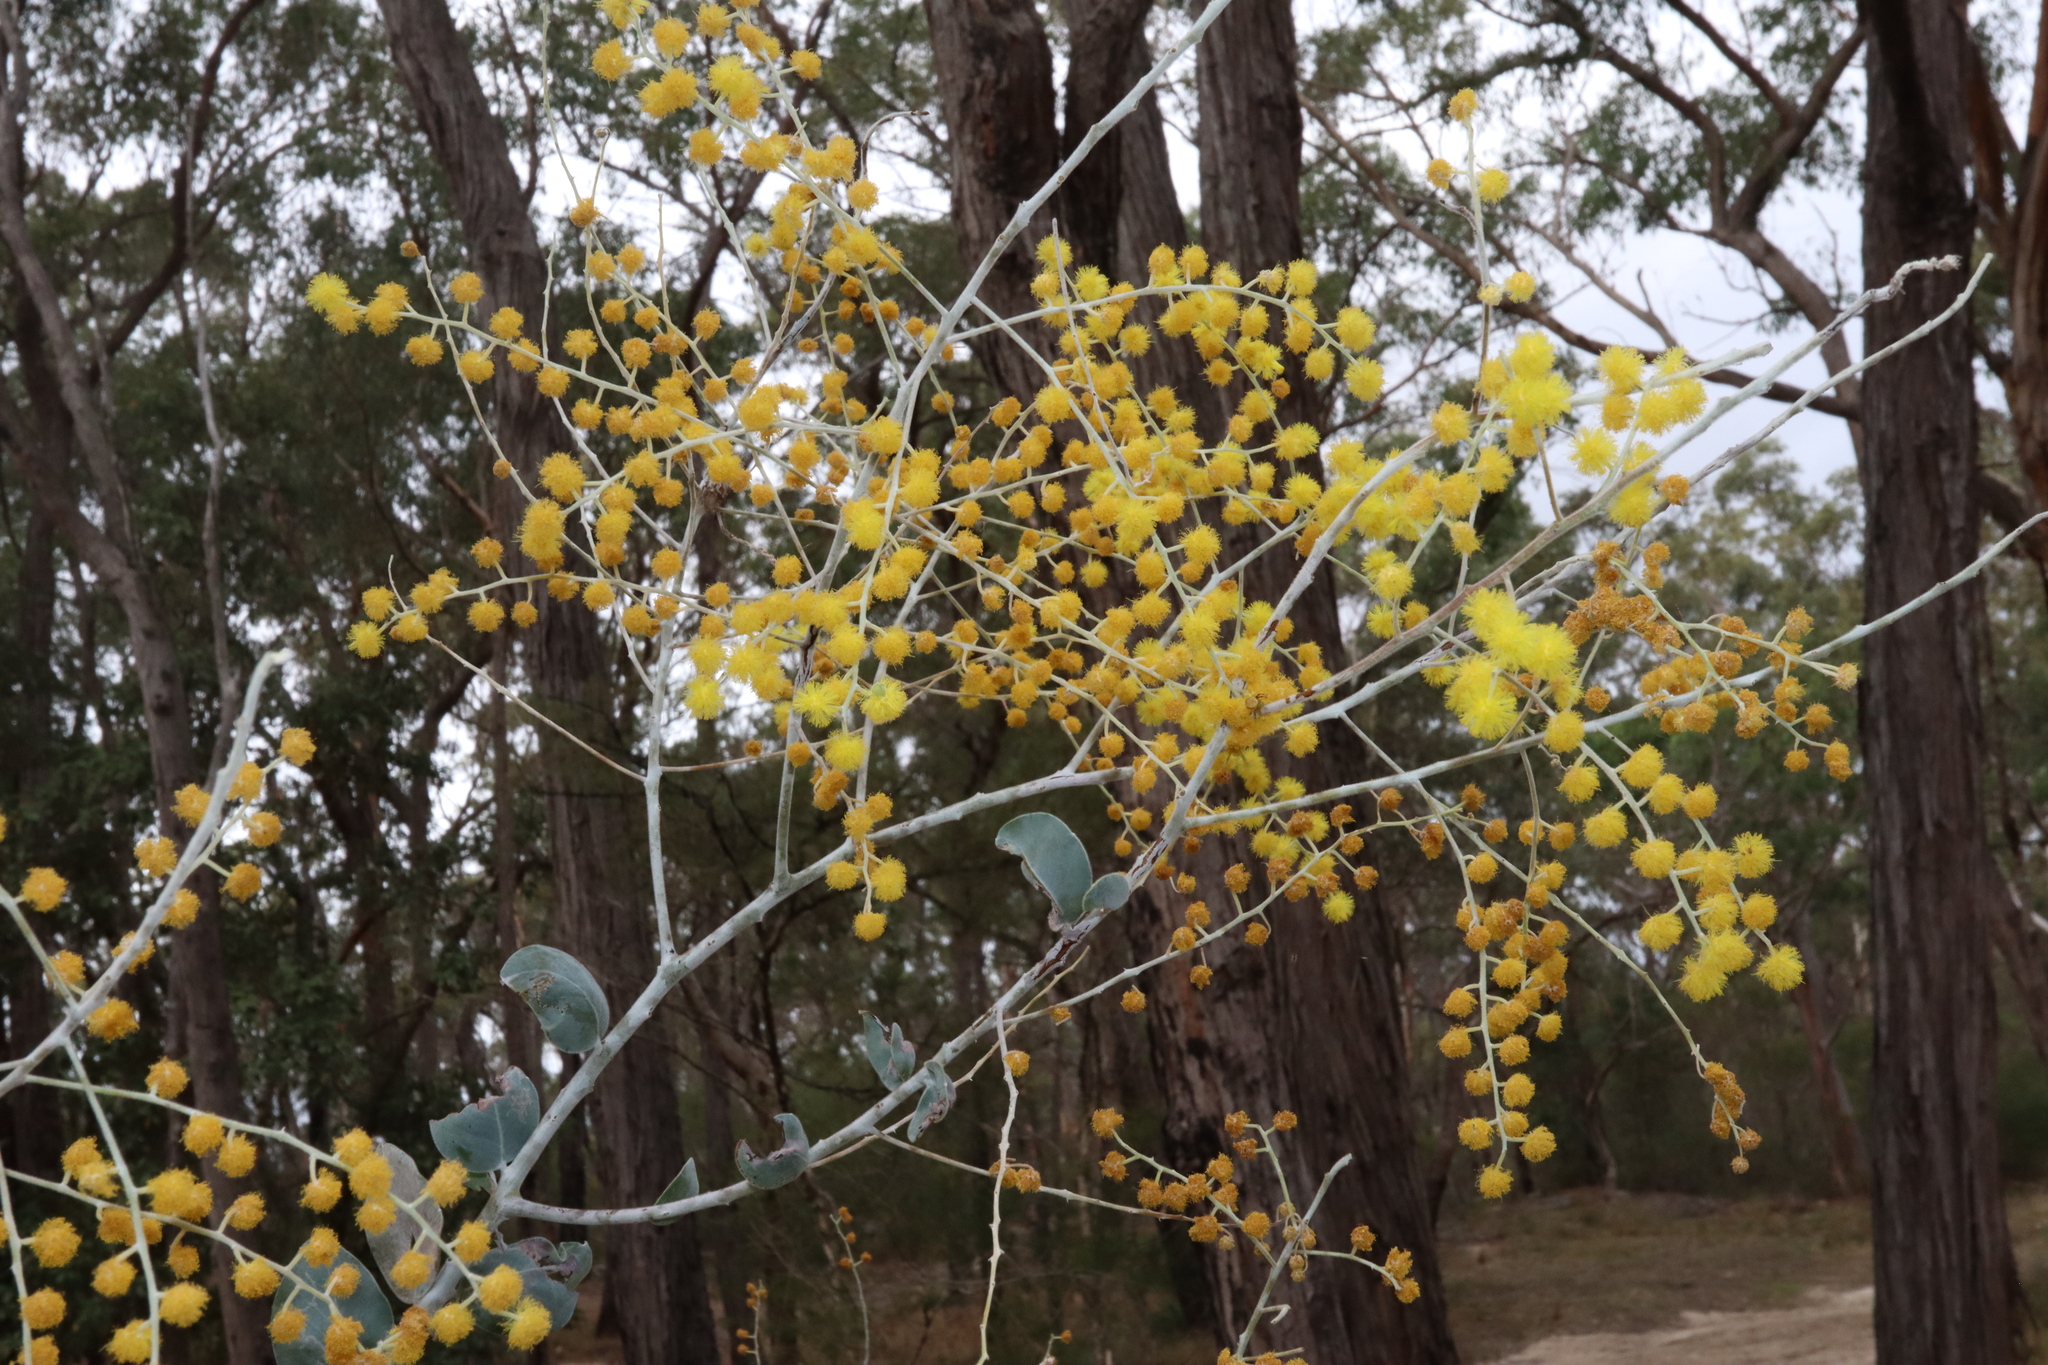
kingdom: Plantae
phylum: Tracheophyta
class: Magnoliopsida
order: Fabales
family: Fabaceae
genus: Acacia
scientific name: Acacia podalyriifolia
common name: Pearl wattle
